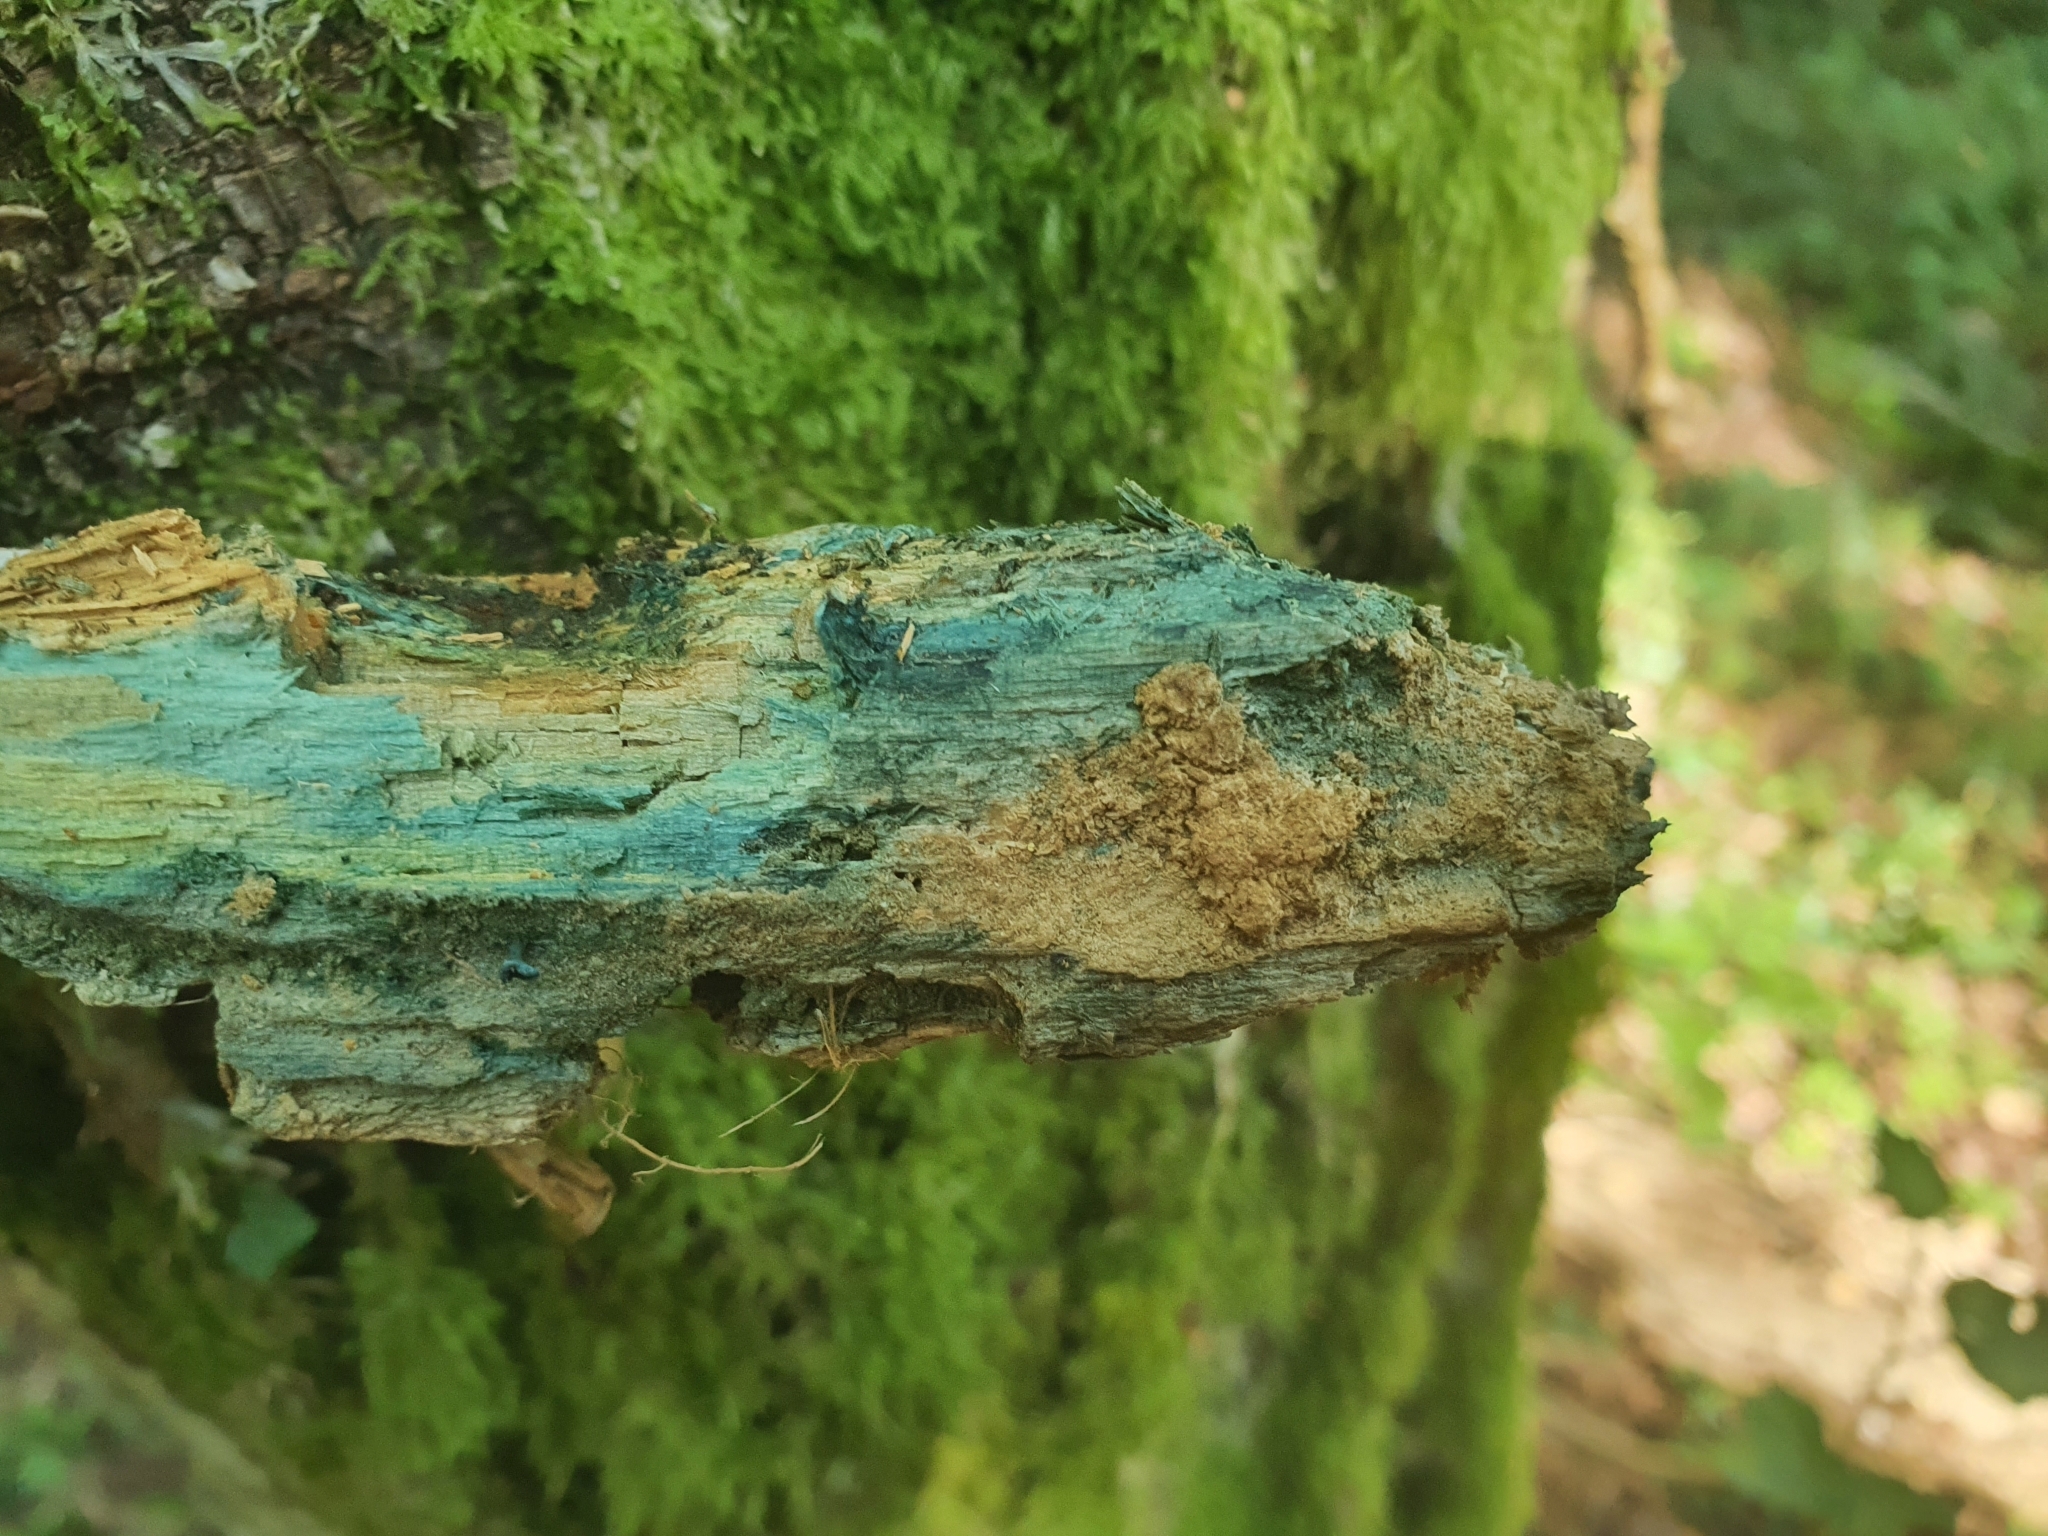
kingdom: Fungi
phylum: Ascomycota
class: Leotiomycetes
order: Helotiales
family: Chlorociboriaceae
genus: Chlorociboria
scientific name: Chlorociboria aeruginascens
